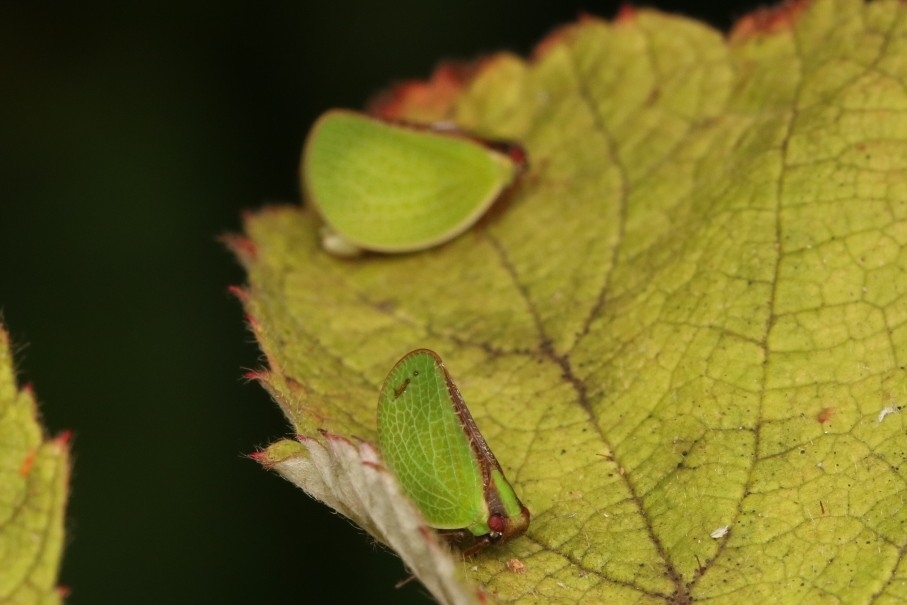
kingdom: Animalia
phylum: Arthropoda
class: Insecta
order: Hemiptera
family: Acanaloniidae
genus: Acanalonia
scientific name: Acanalonia bivittata
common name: Two-striped planthopper
